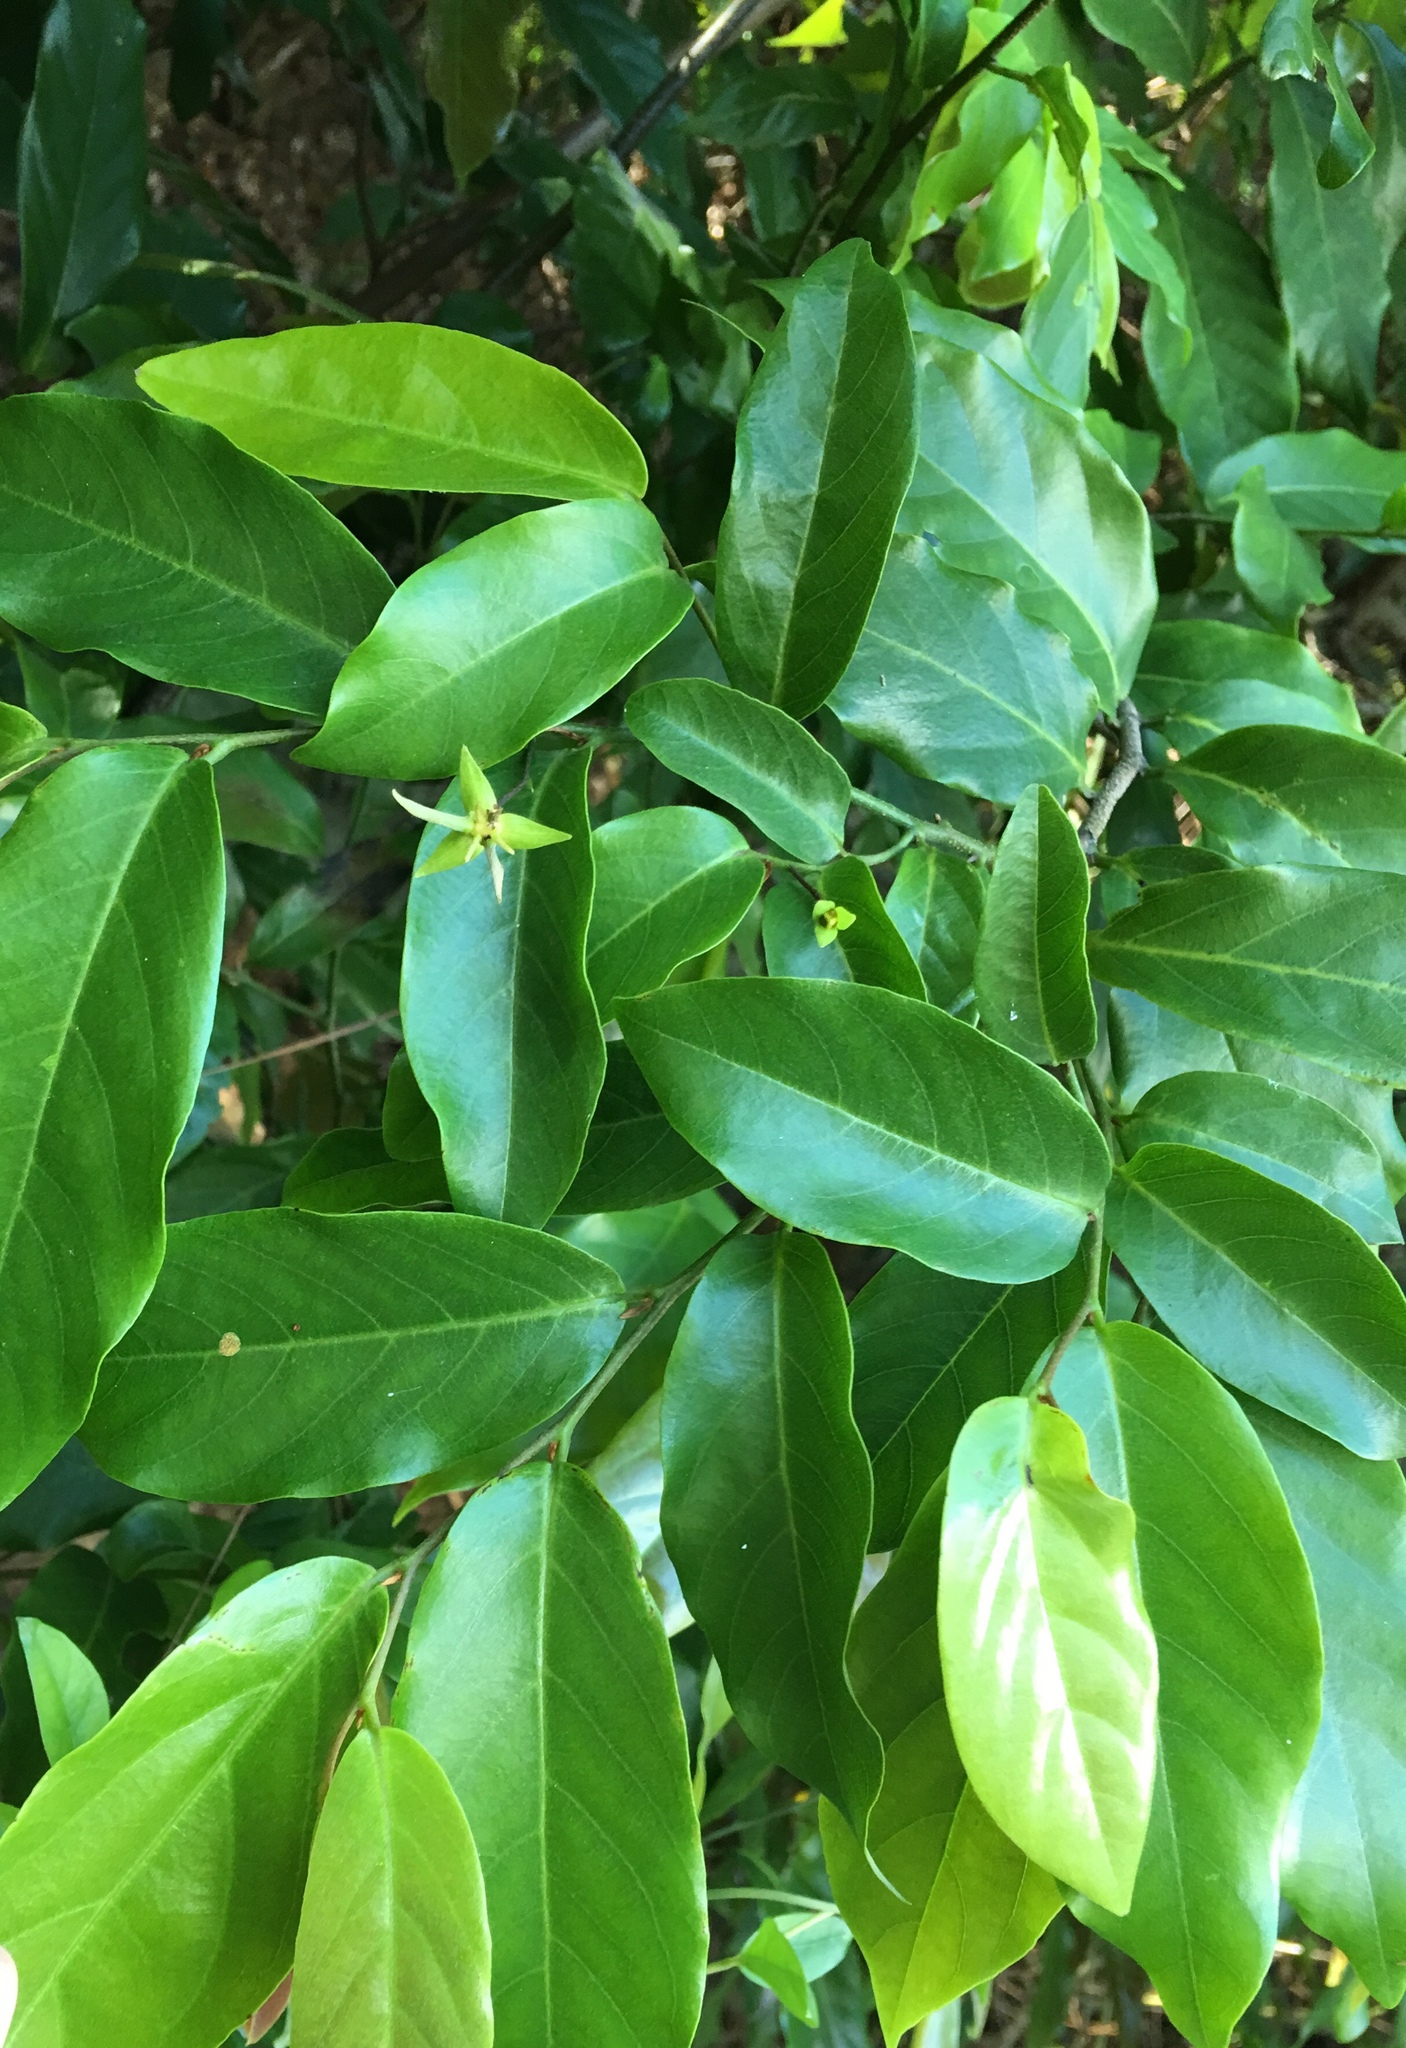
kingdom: Plantae
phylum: Tracheophyta
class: Magnoliopsida
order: Magnoliales
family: Annonaceae
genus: Desmos
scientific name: Desmos chinensis
